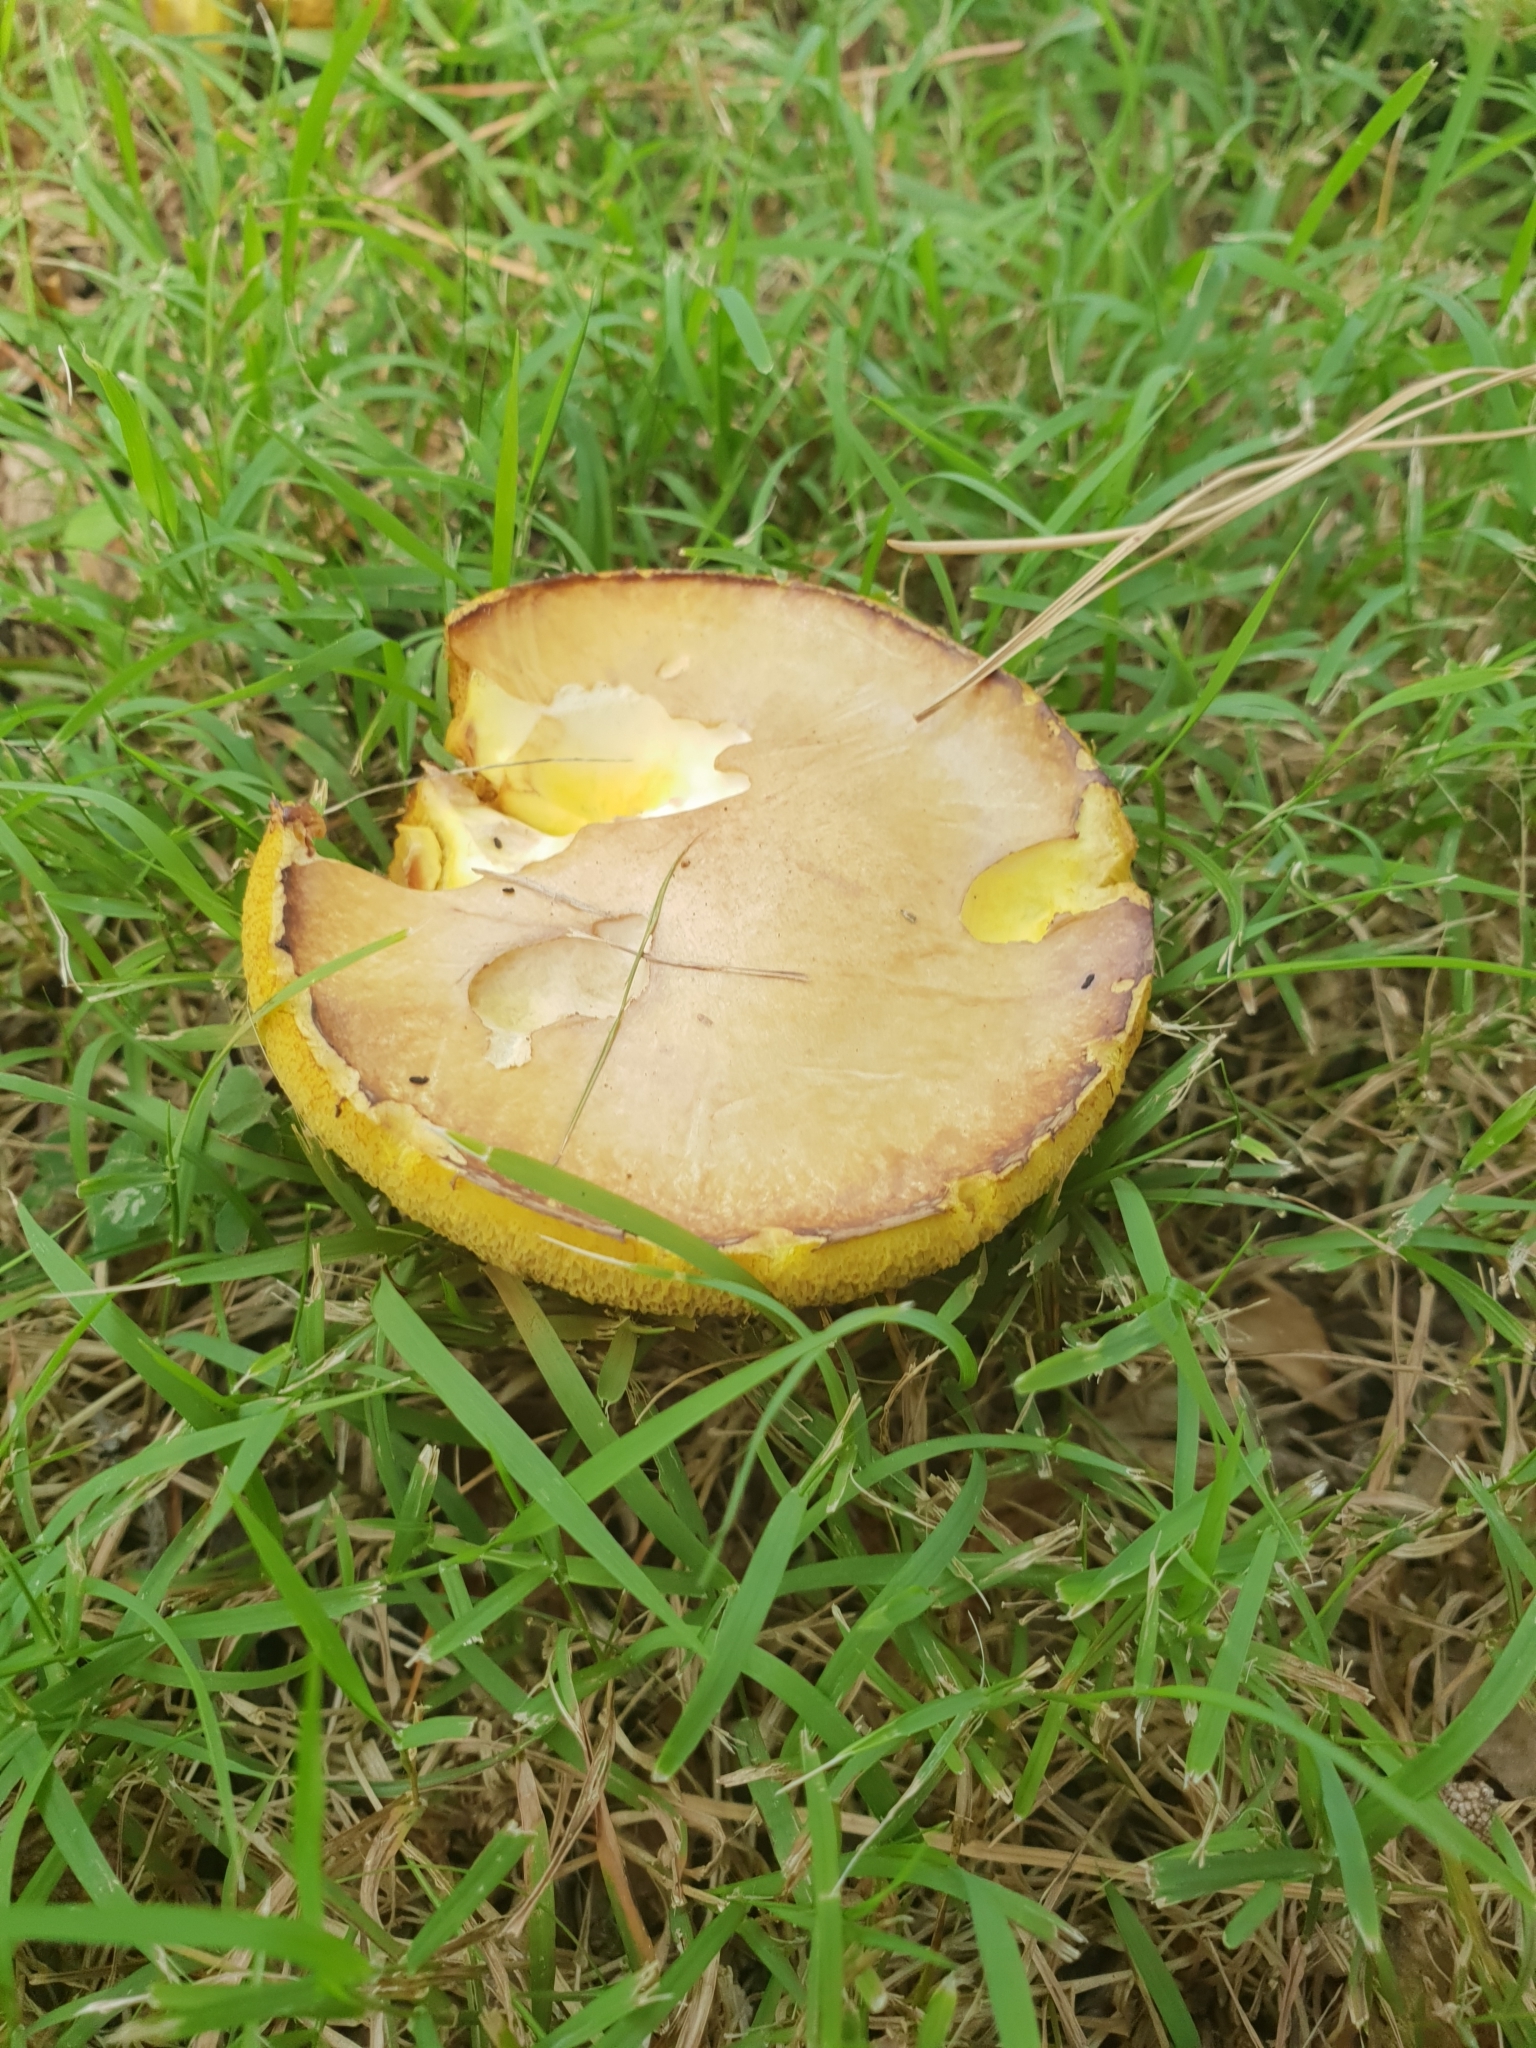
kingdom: Fungi
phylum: Basidiomycota
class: Agaricomycetes
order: Boletales
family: Suillaceae
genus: Suillus
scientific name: Suillus granulatus
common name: Weeping bolete
